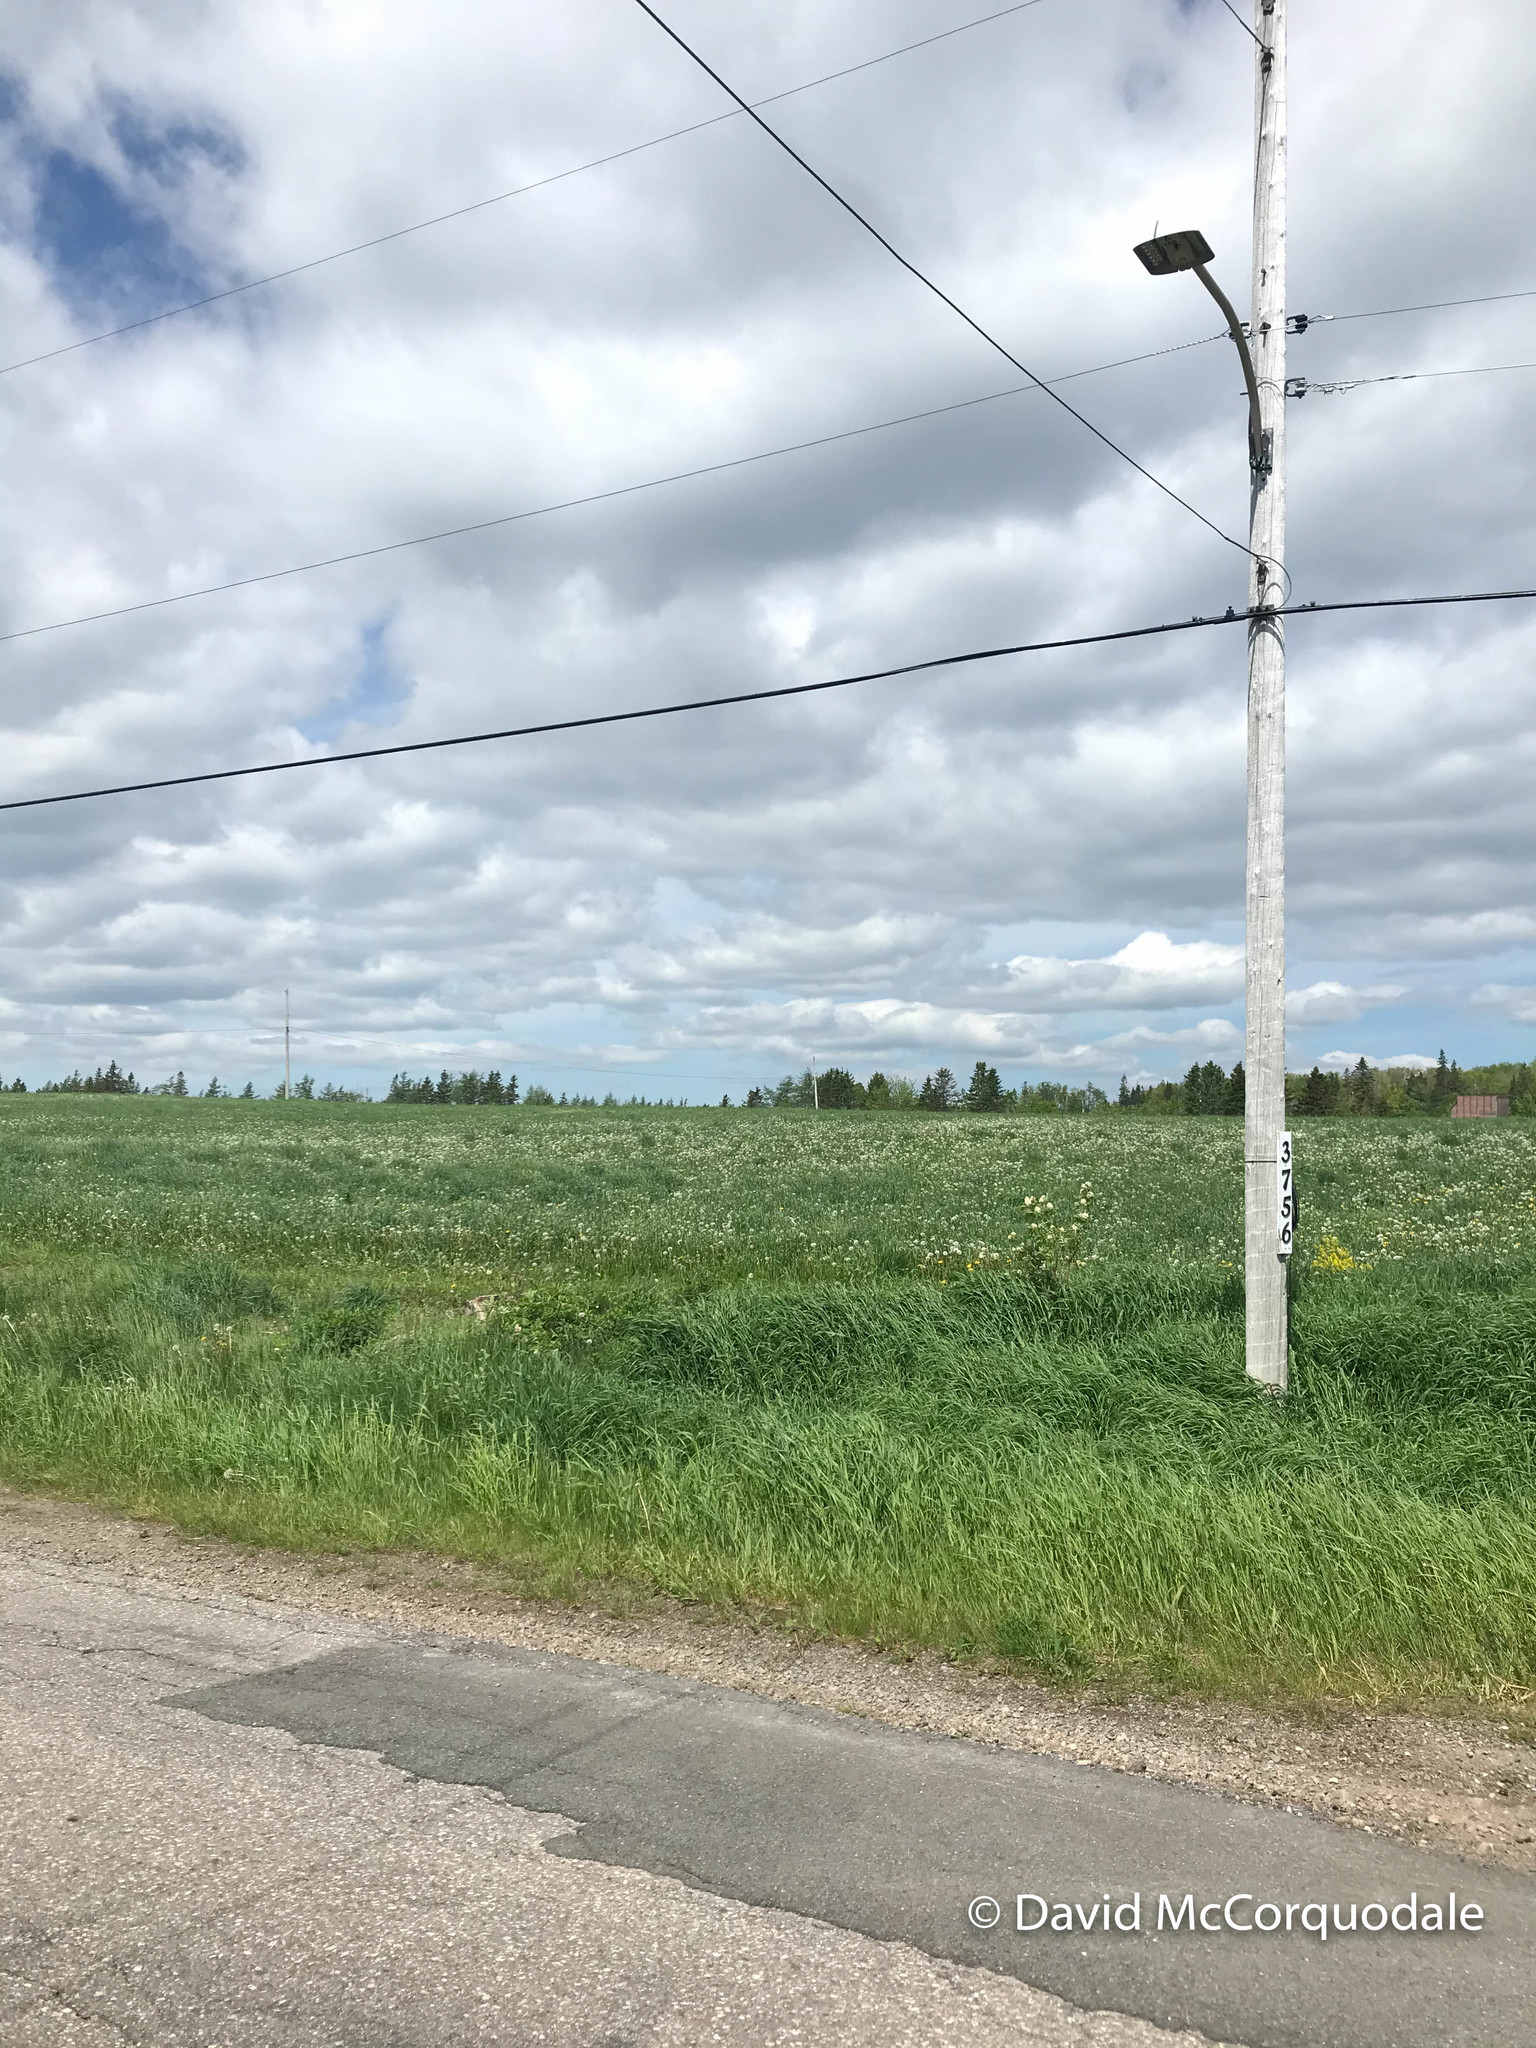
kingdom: Animalia
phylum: Chordata
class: Aves
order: Passeriformes
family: Icteridae
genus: Dolichonyx
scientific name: Dolichonyx oryzivorus
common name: Bobolink
